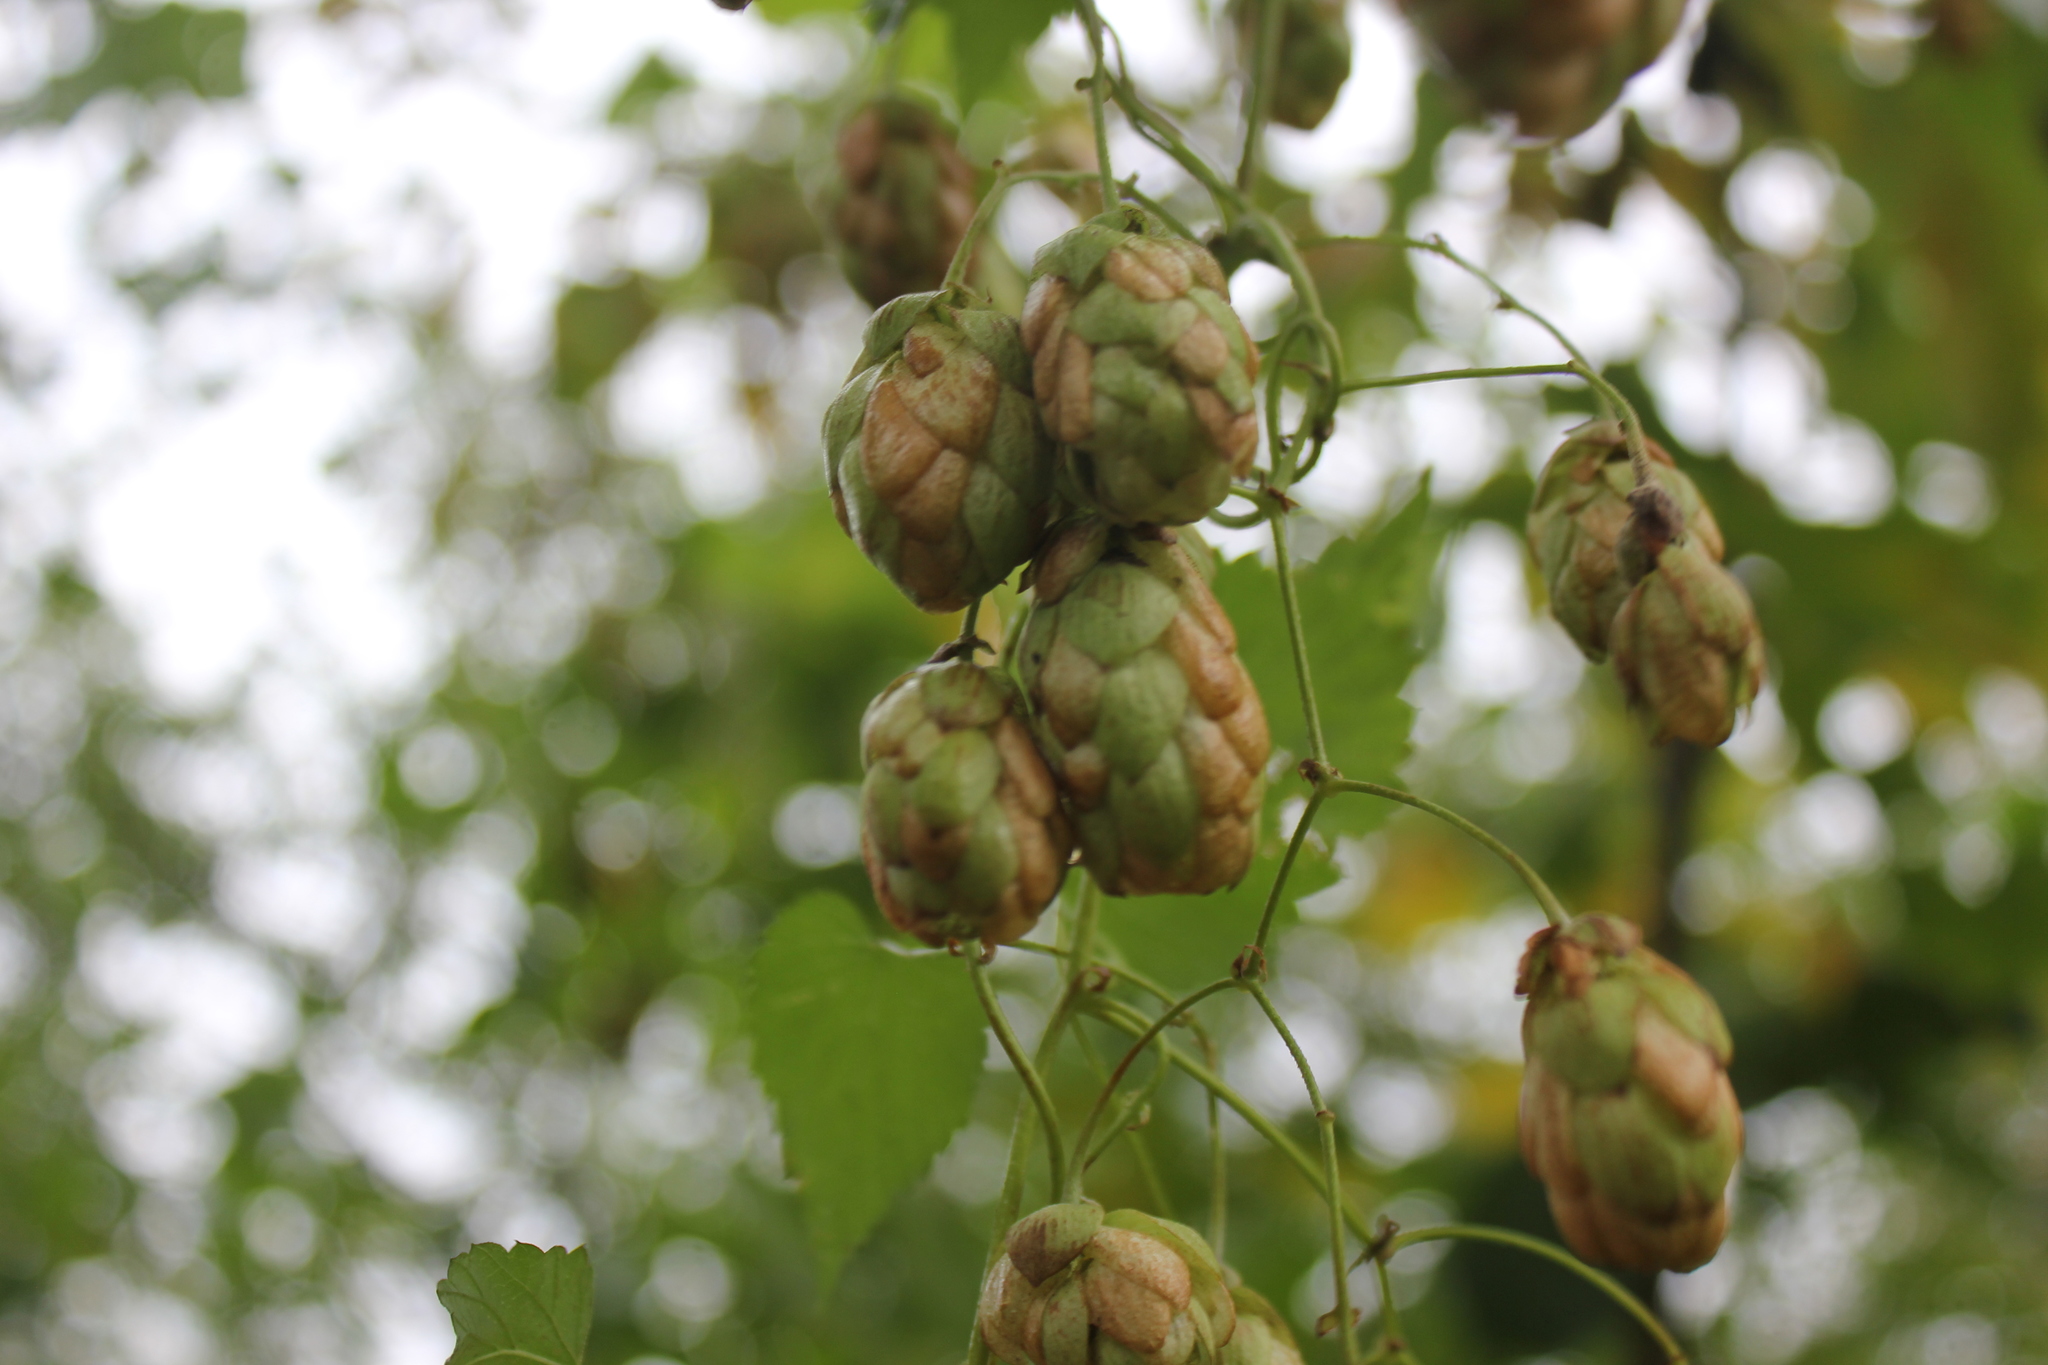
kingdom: Plantae
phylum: Tracheophyta
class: Magnoliopsida
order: Rosales
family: Cannabaceae
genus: Humulus
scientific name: Humulus lupulus
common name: Hop
